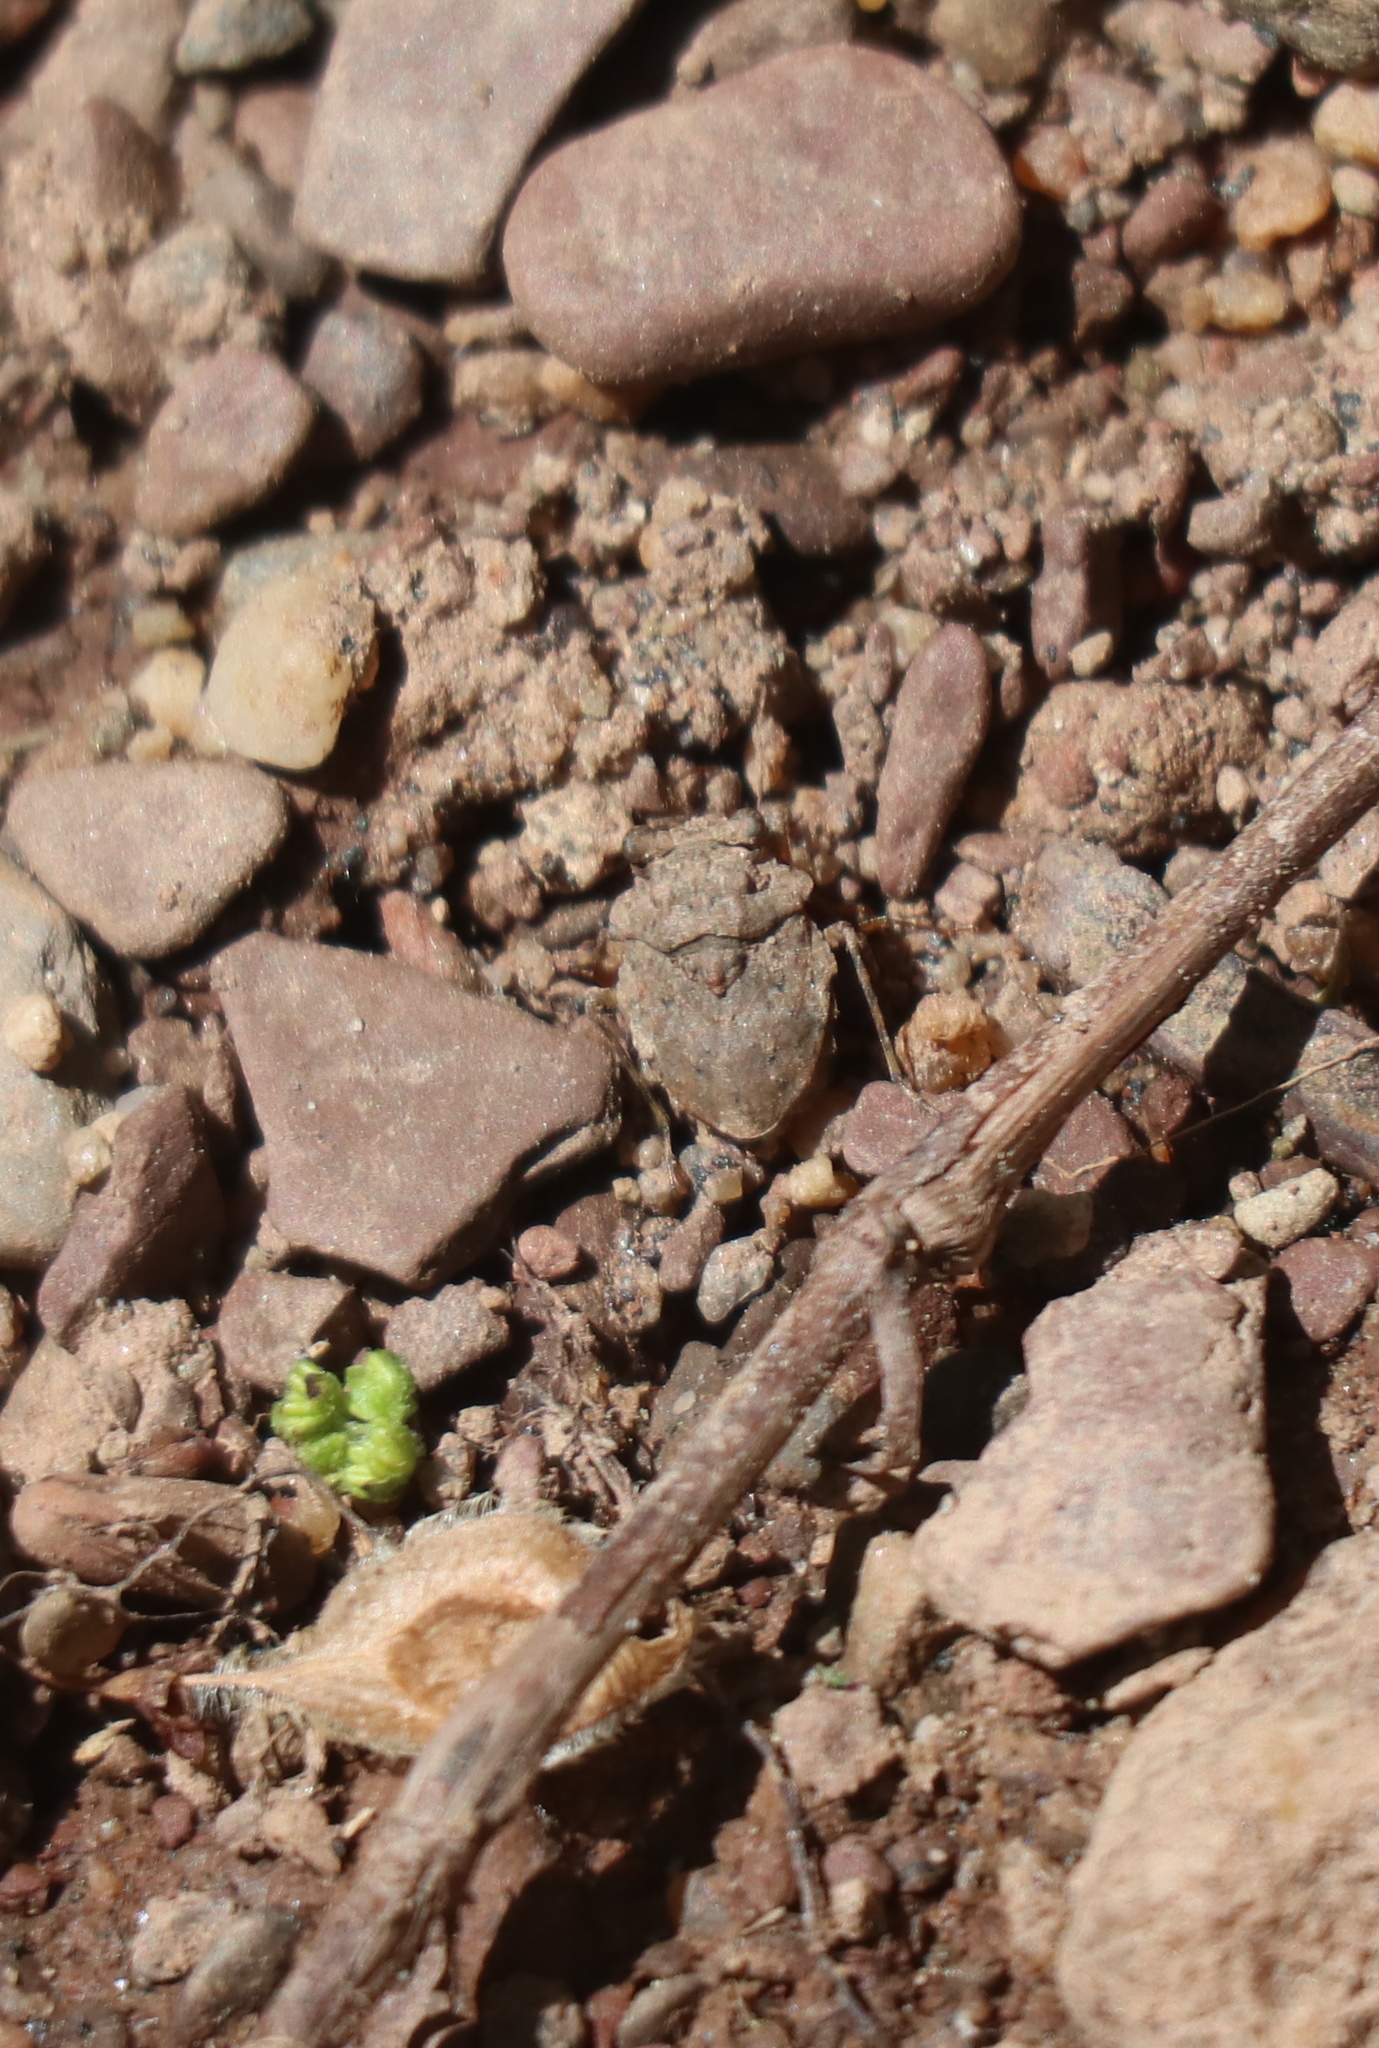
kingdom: Animalia
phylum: Arthropoda
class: Insecta
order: Hemiptera
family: Gelastocoridae
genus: Gelastocoris
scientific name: Gelastocoris oculatus
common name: Toad bug
